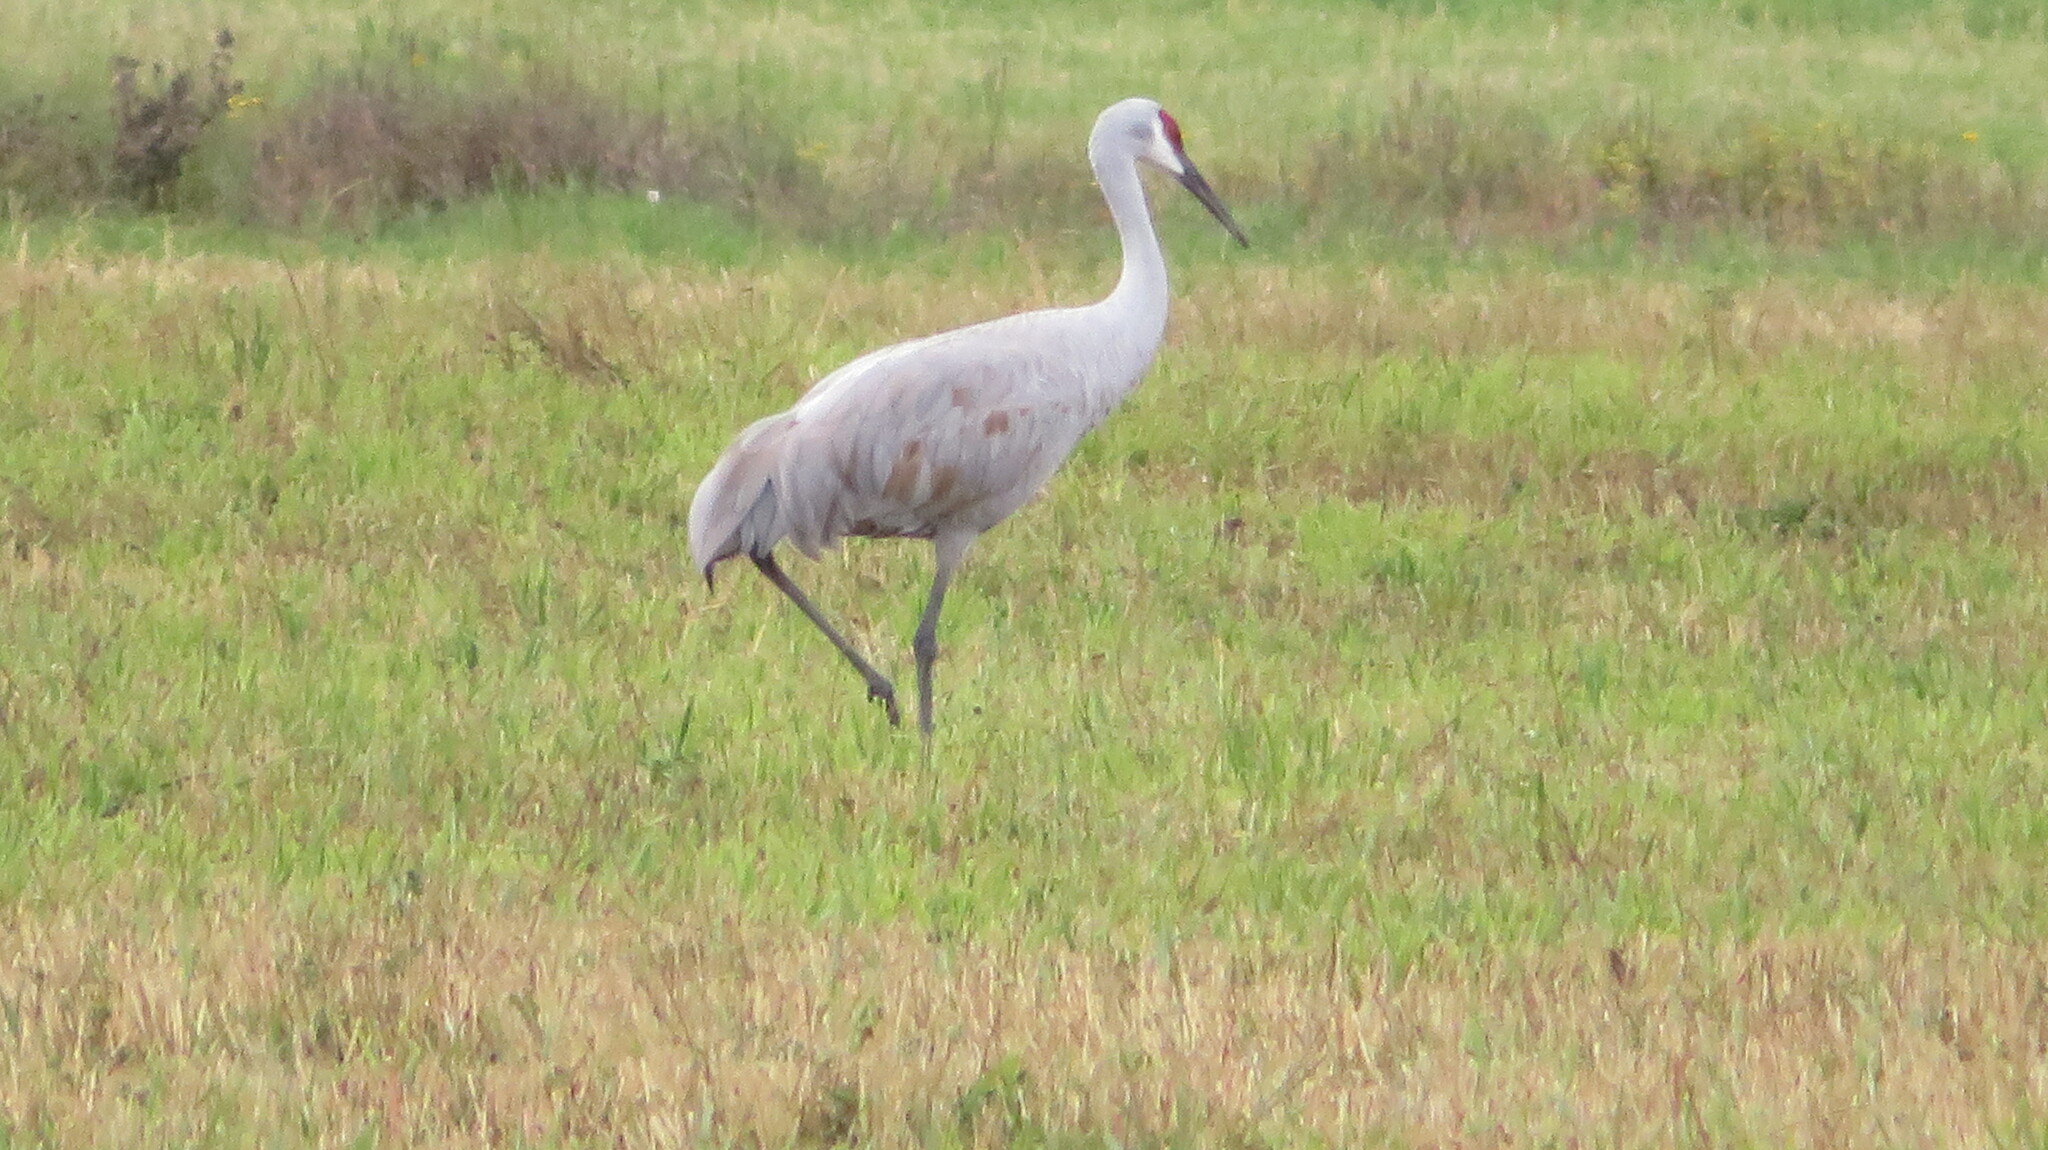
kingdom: Animalia
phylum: Chordata
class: Aves
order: Gruiformes
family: Gruidae
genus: Grus
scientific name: Grus canadensis
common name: Sandhill crane
